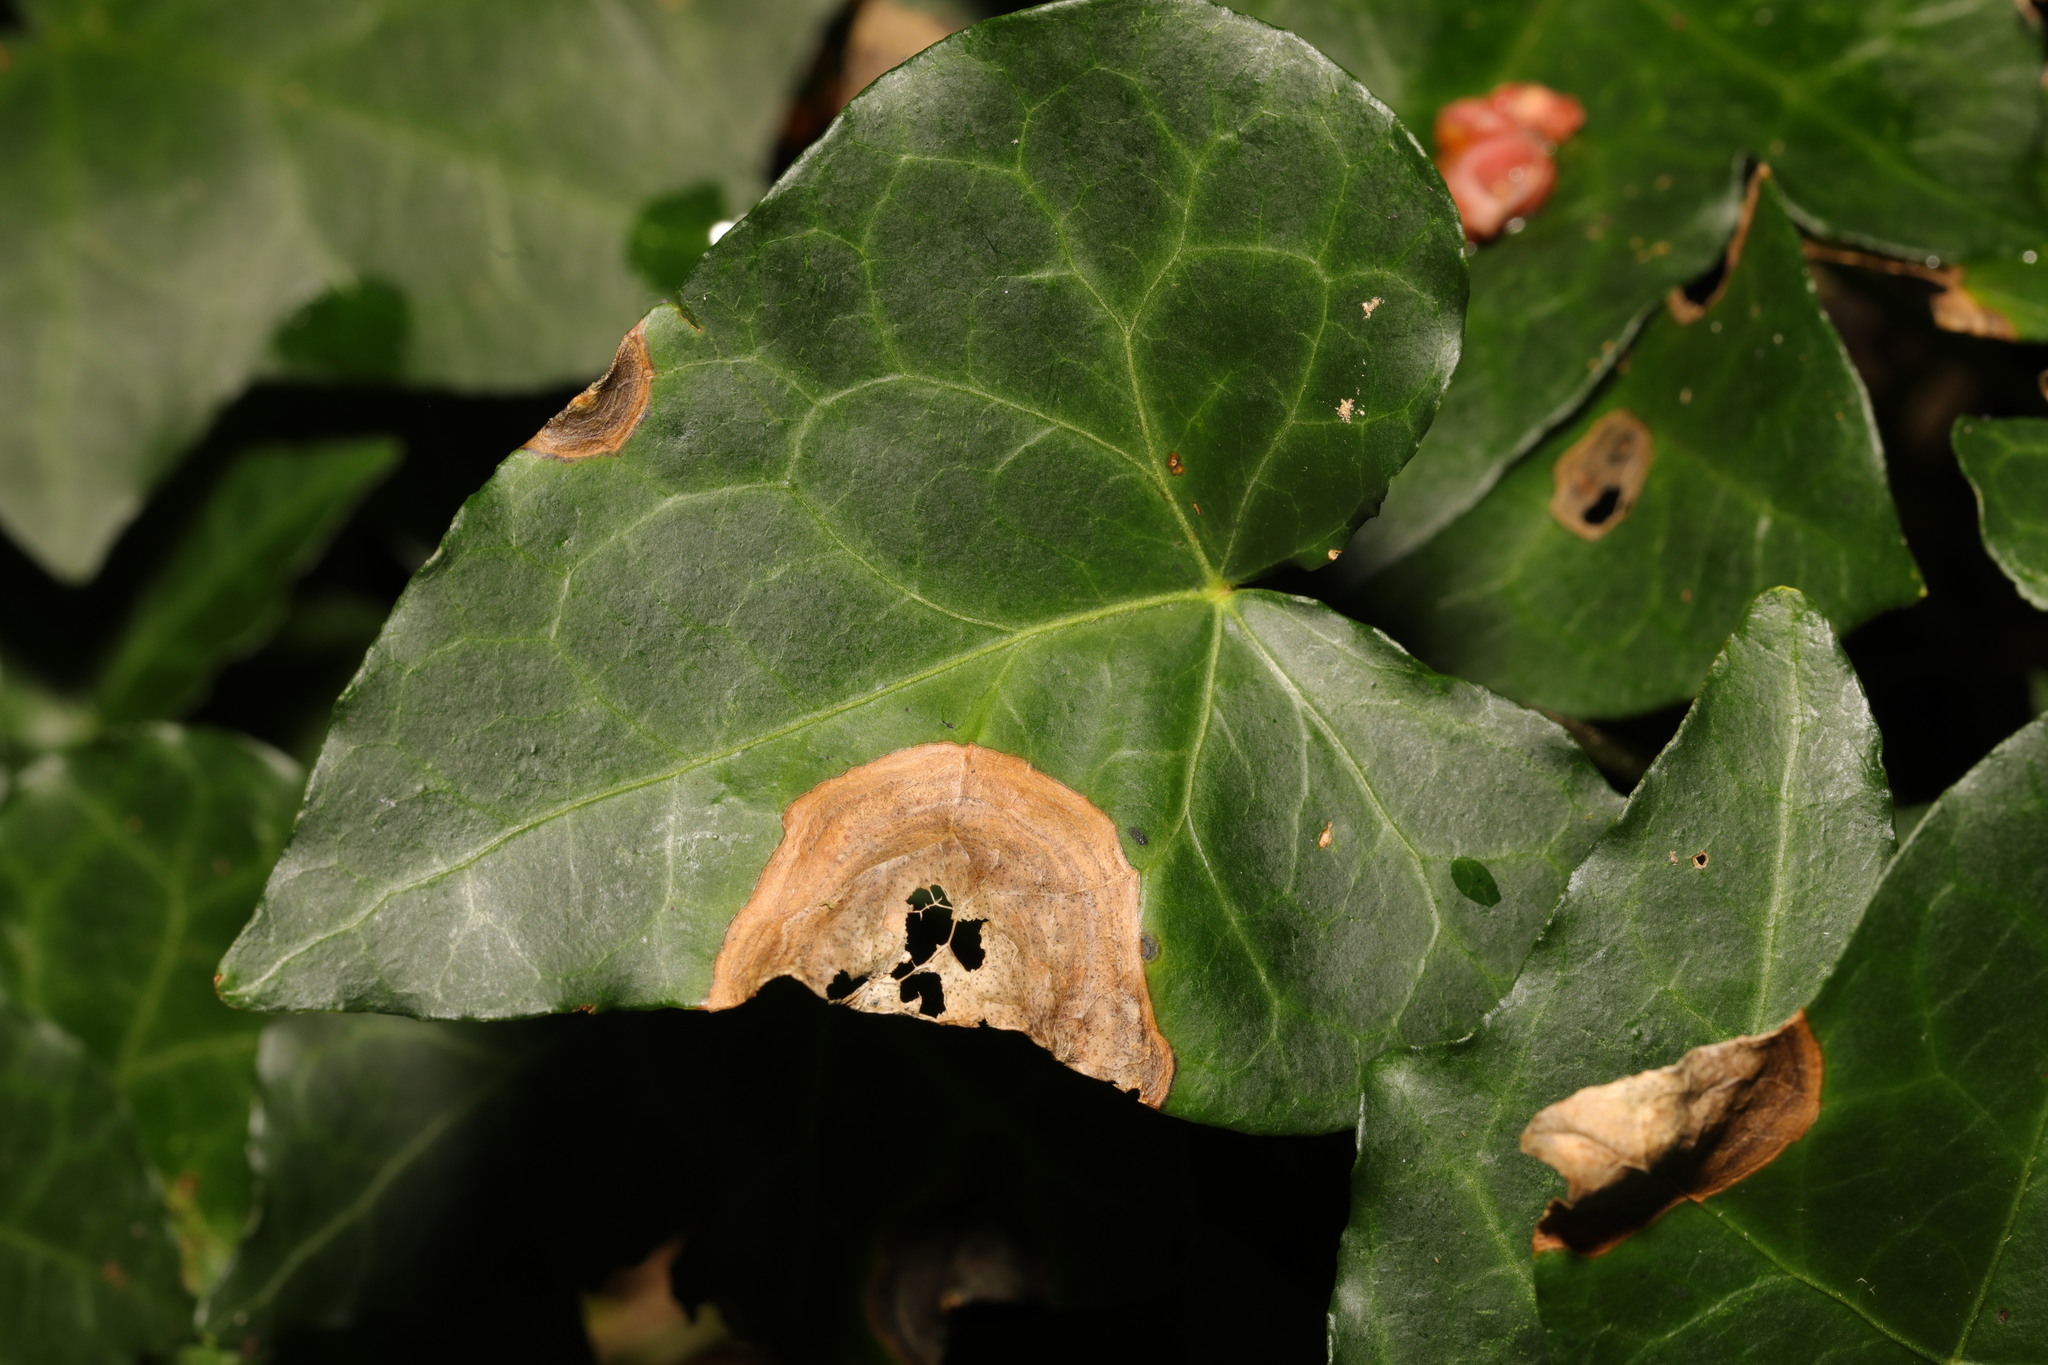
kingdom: Fungi
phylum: Ascomycota
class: Dothideomycetes
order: Pleosporales
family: Didymellaceae
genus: Boeremia
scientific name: Boeremia hedericola
